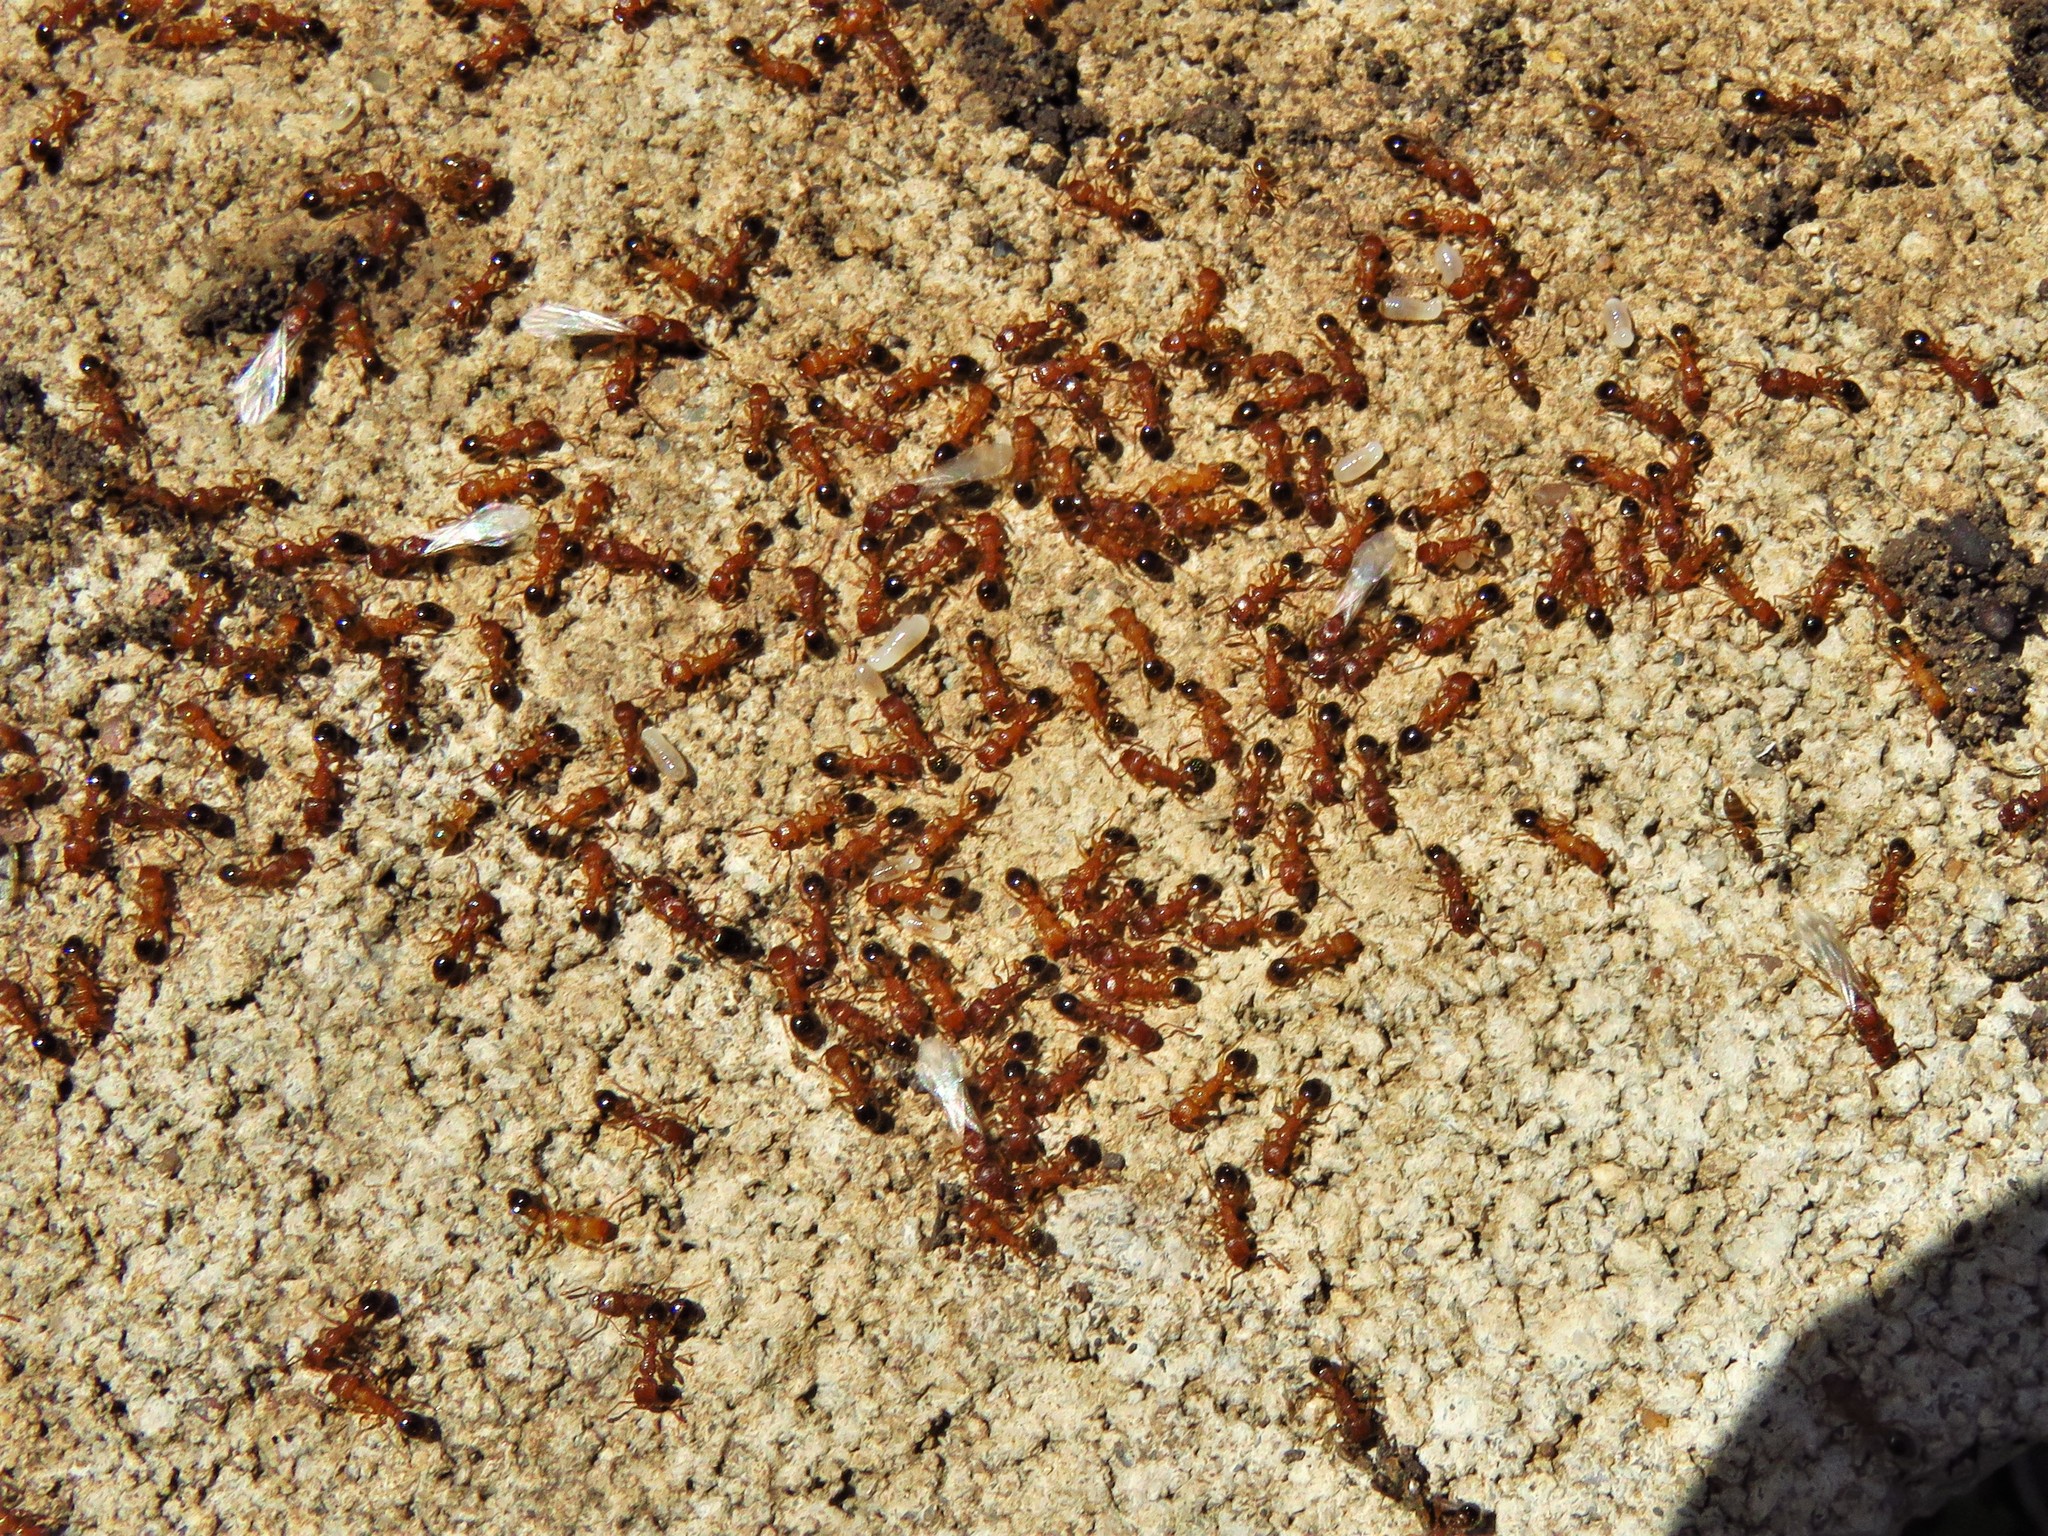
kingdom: Animalia
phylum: Arthropoda
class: Insecta
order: Hymenoptera
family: Formicidae
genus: Tetramorium
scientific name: Tetramorium bicarinatum
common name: Guinea ant
